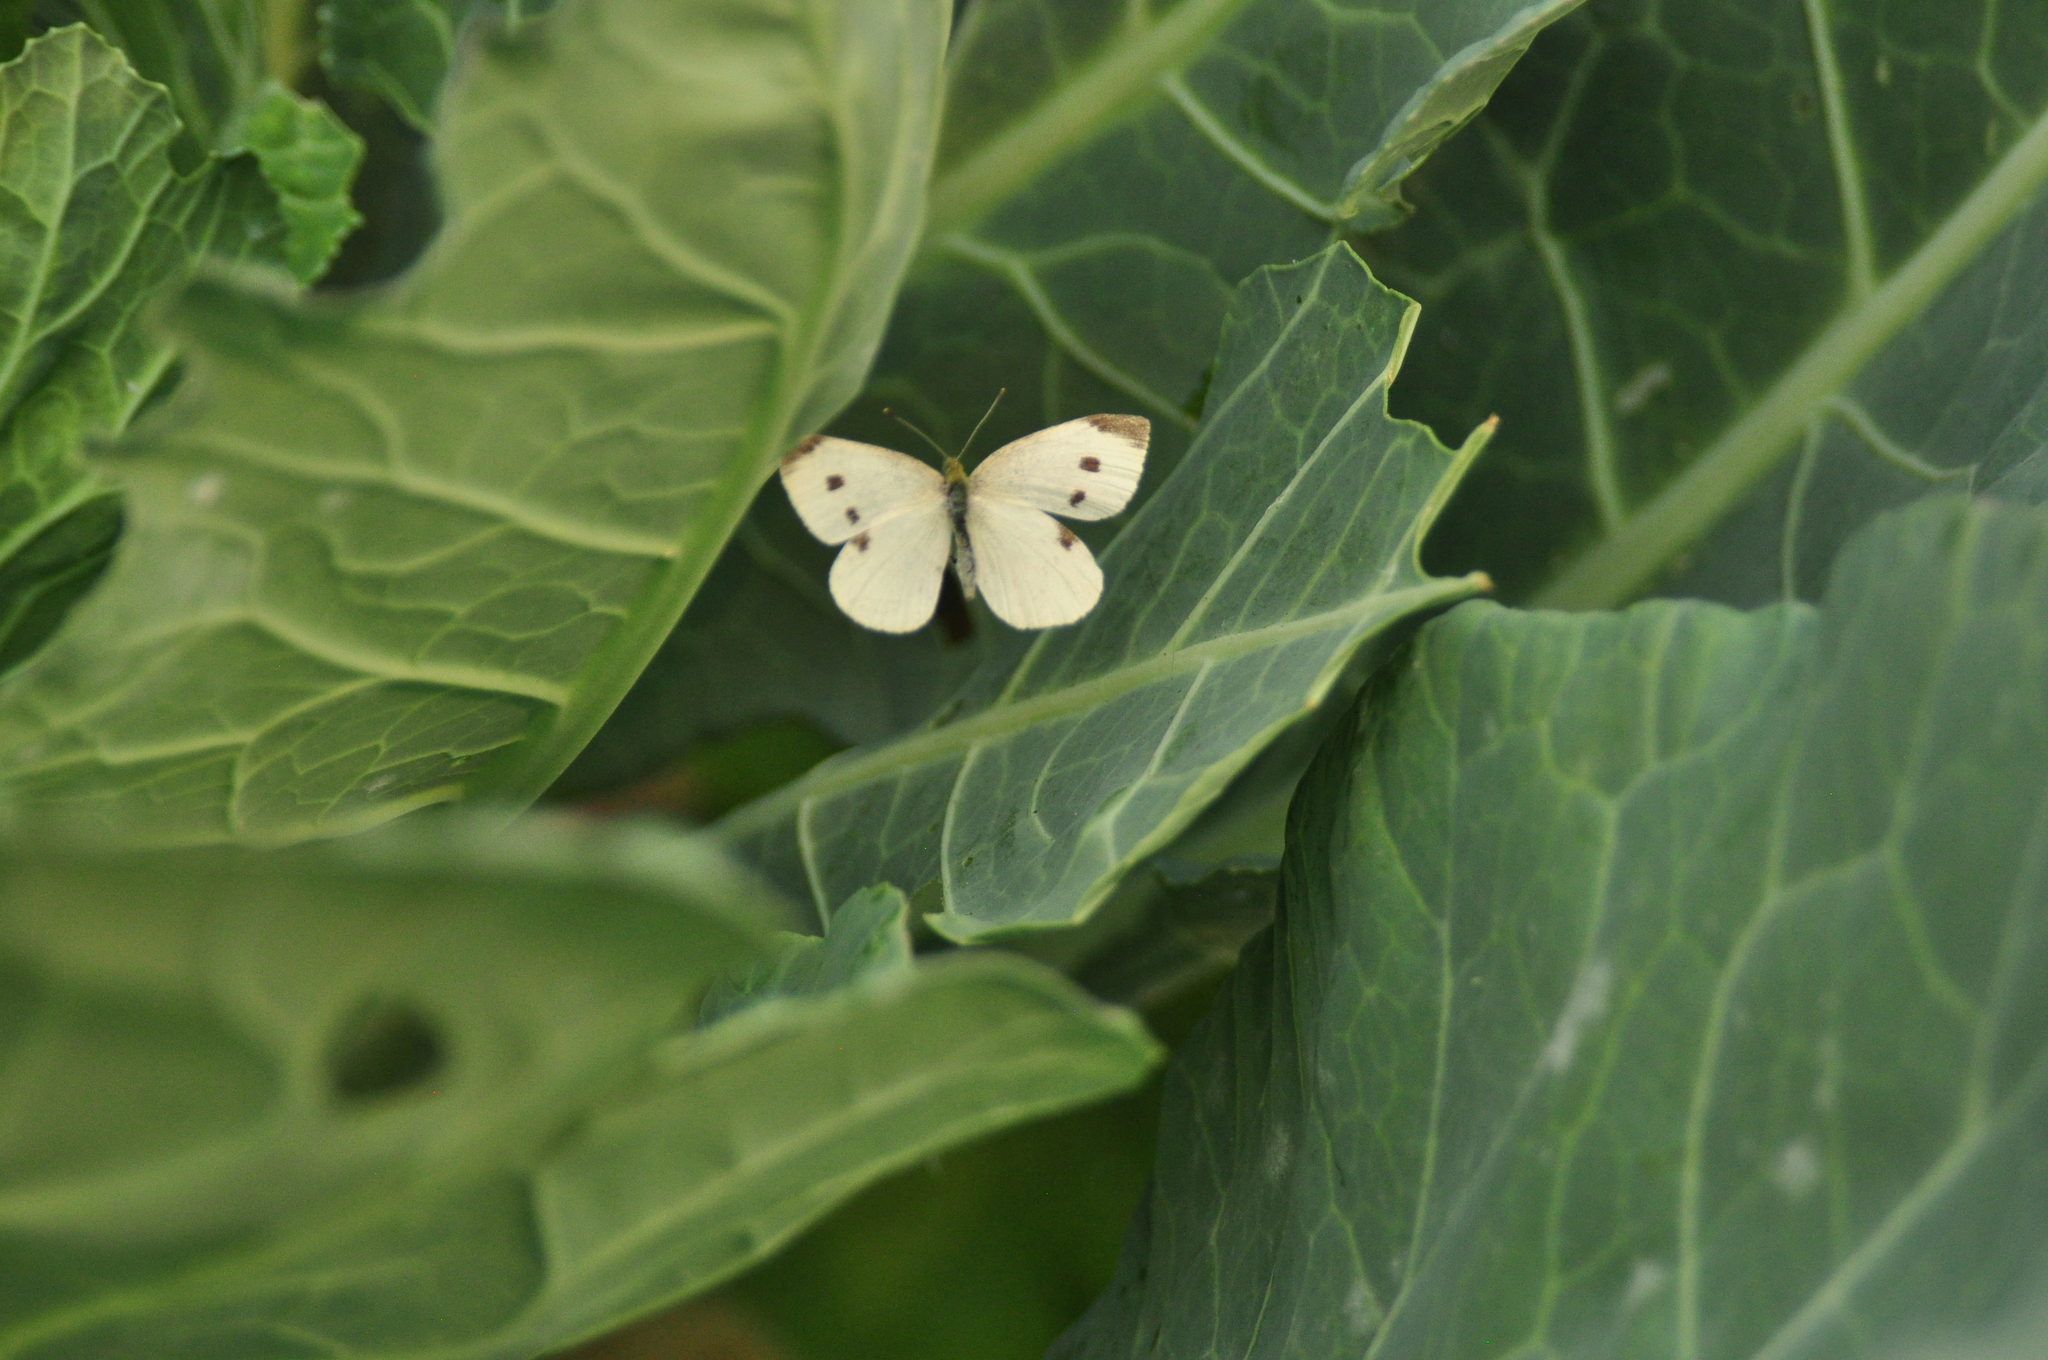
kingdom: Animalia
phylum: Arthropoda
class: Insecta
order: Lepidoptera
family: Pieridae
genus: Pieris
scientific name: Pieris rapae
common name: Small white
